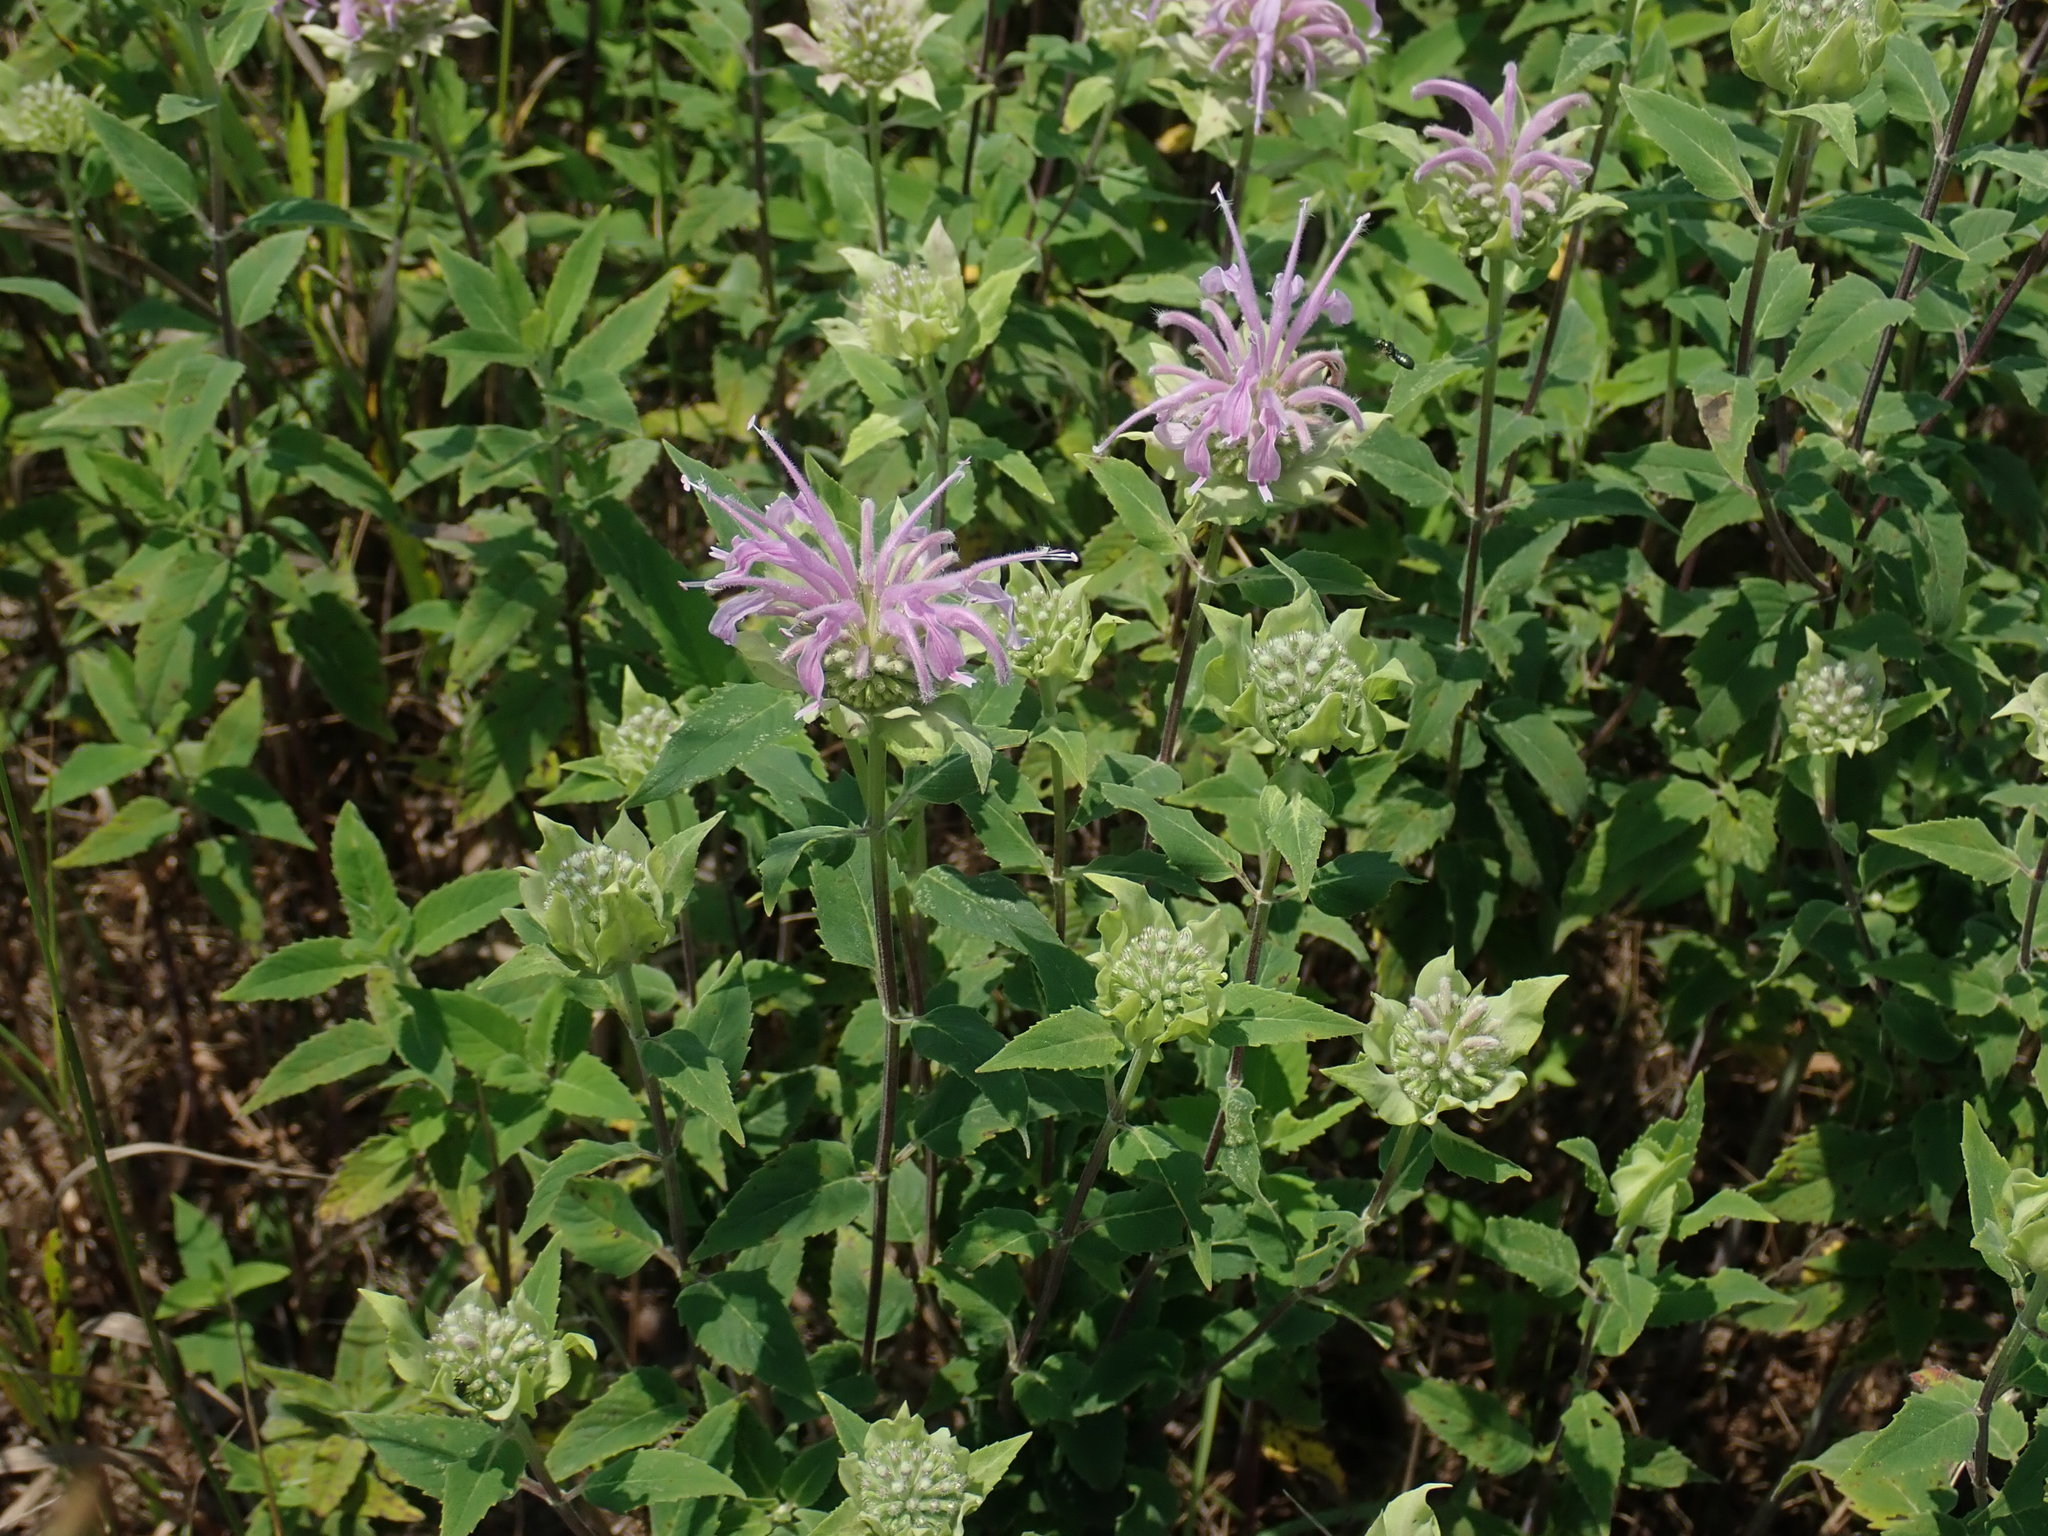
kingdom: Plantae
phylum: Tracheophyta
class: Magnoliopsida
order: Lamiales
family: Lamiaceae
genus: Monarda
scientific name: Monarda fistulosa
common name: Purple beebalm
